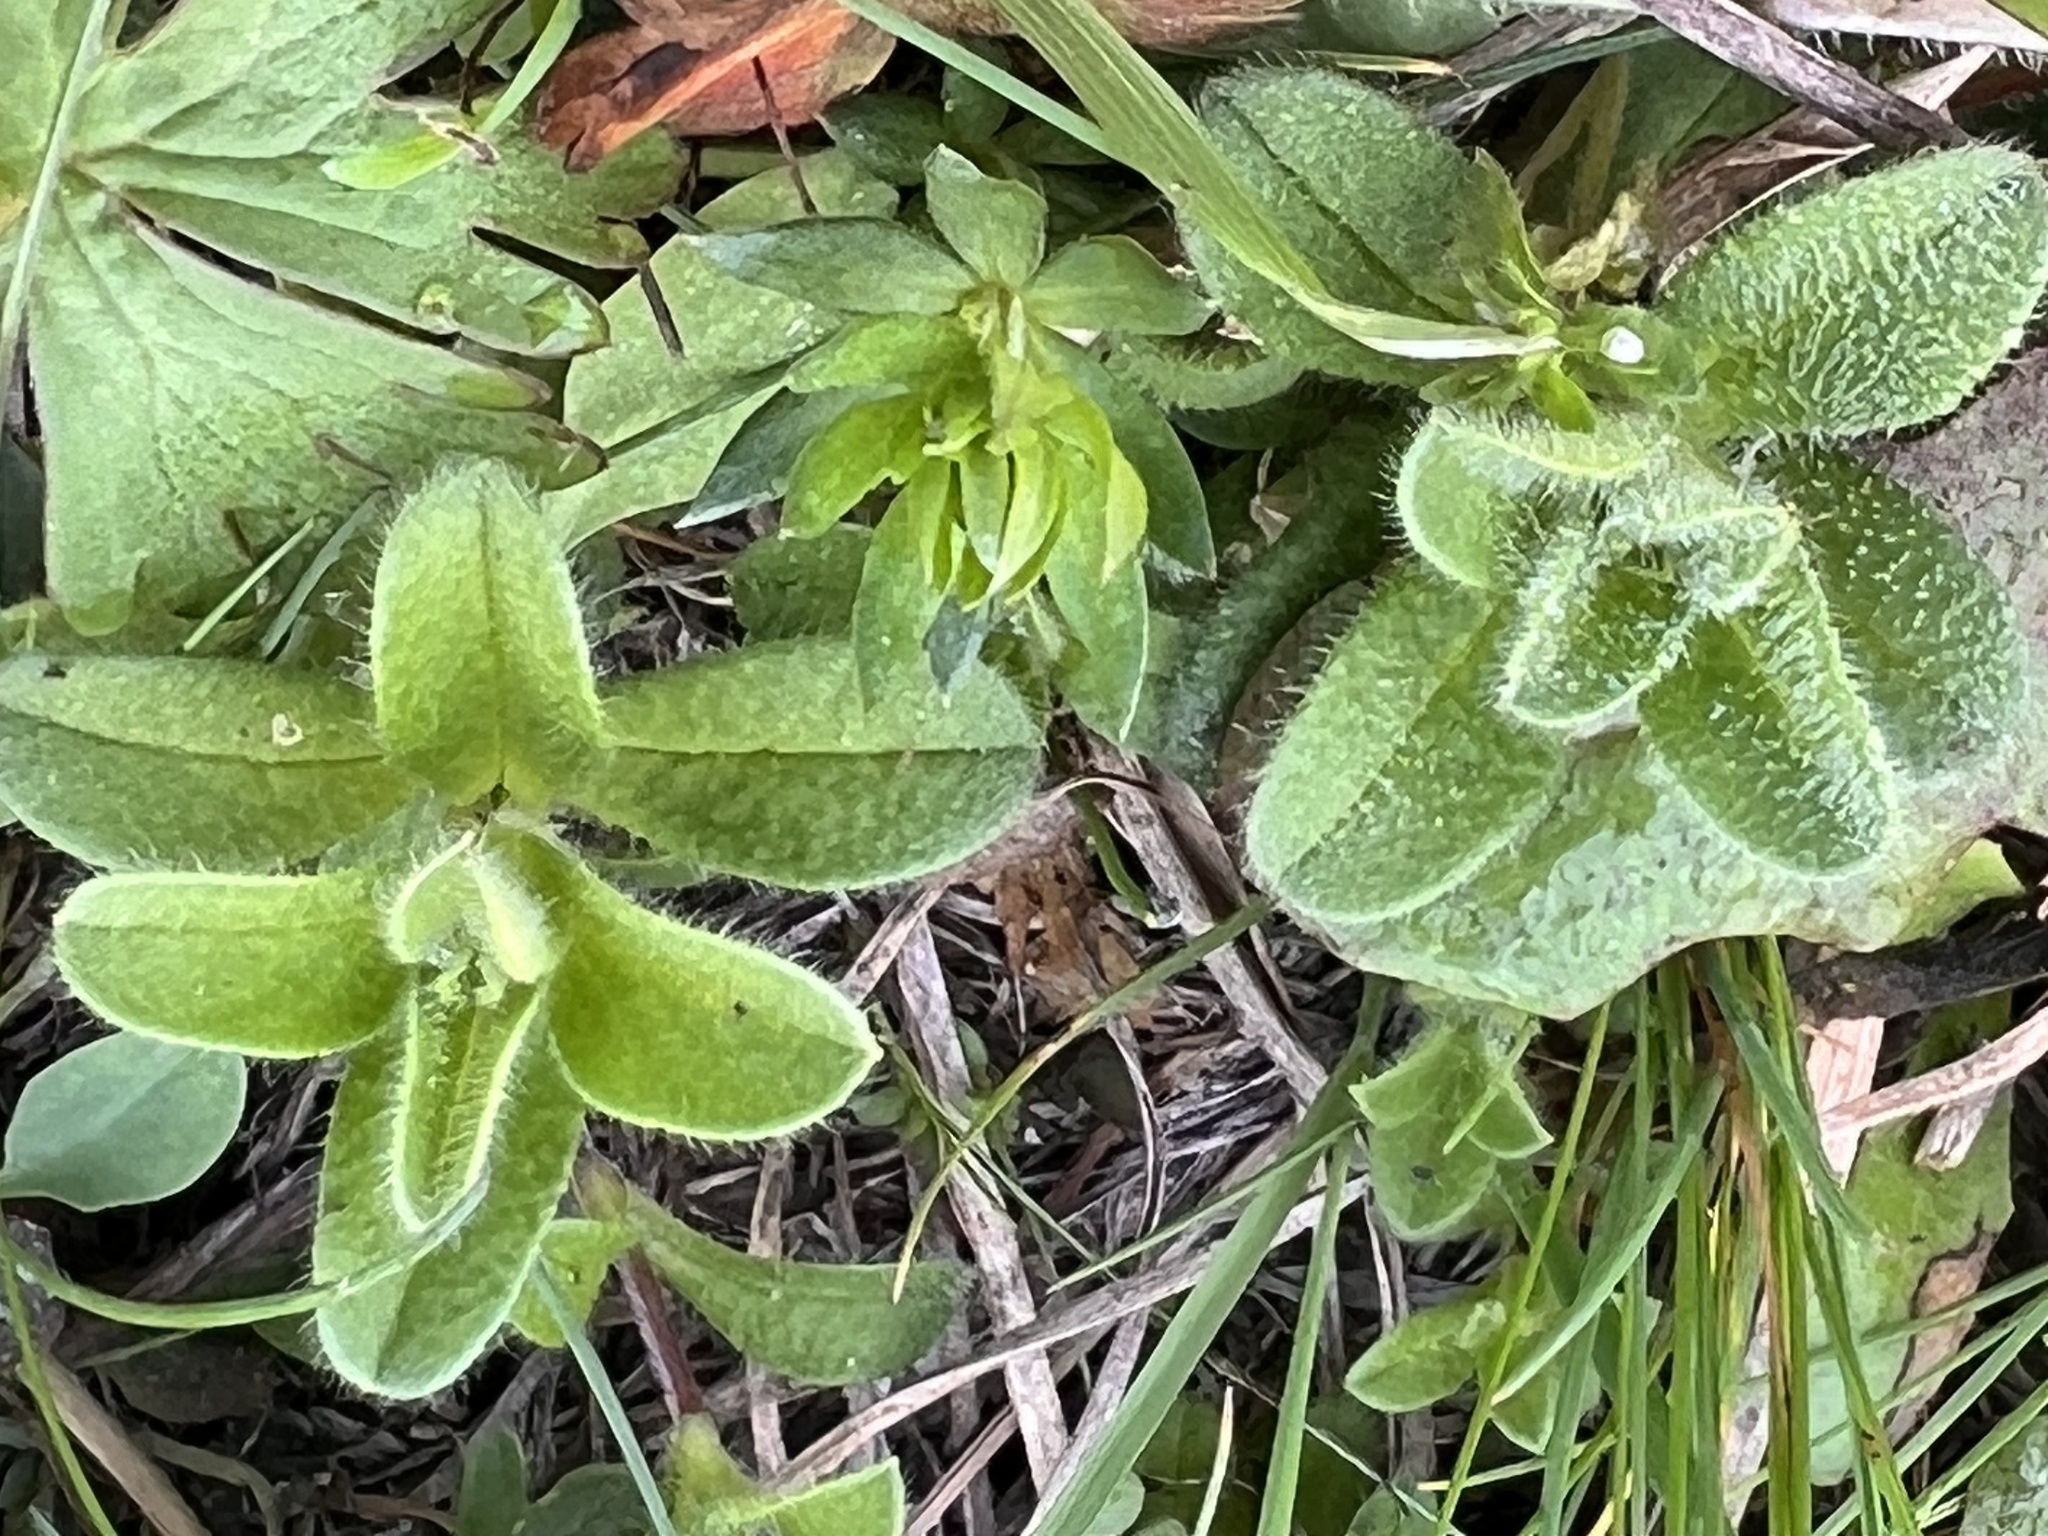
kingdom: Plantae
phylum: Tracheophyta
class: Magnoliopsida
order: Caryophyllales
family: Caryophyllaceae
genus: Cerastium
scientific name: Cerastium fontanum
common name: Common mouse-ear
